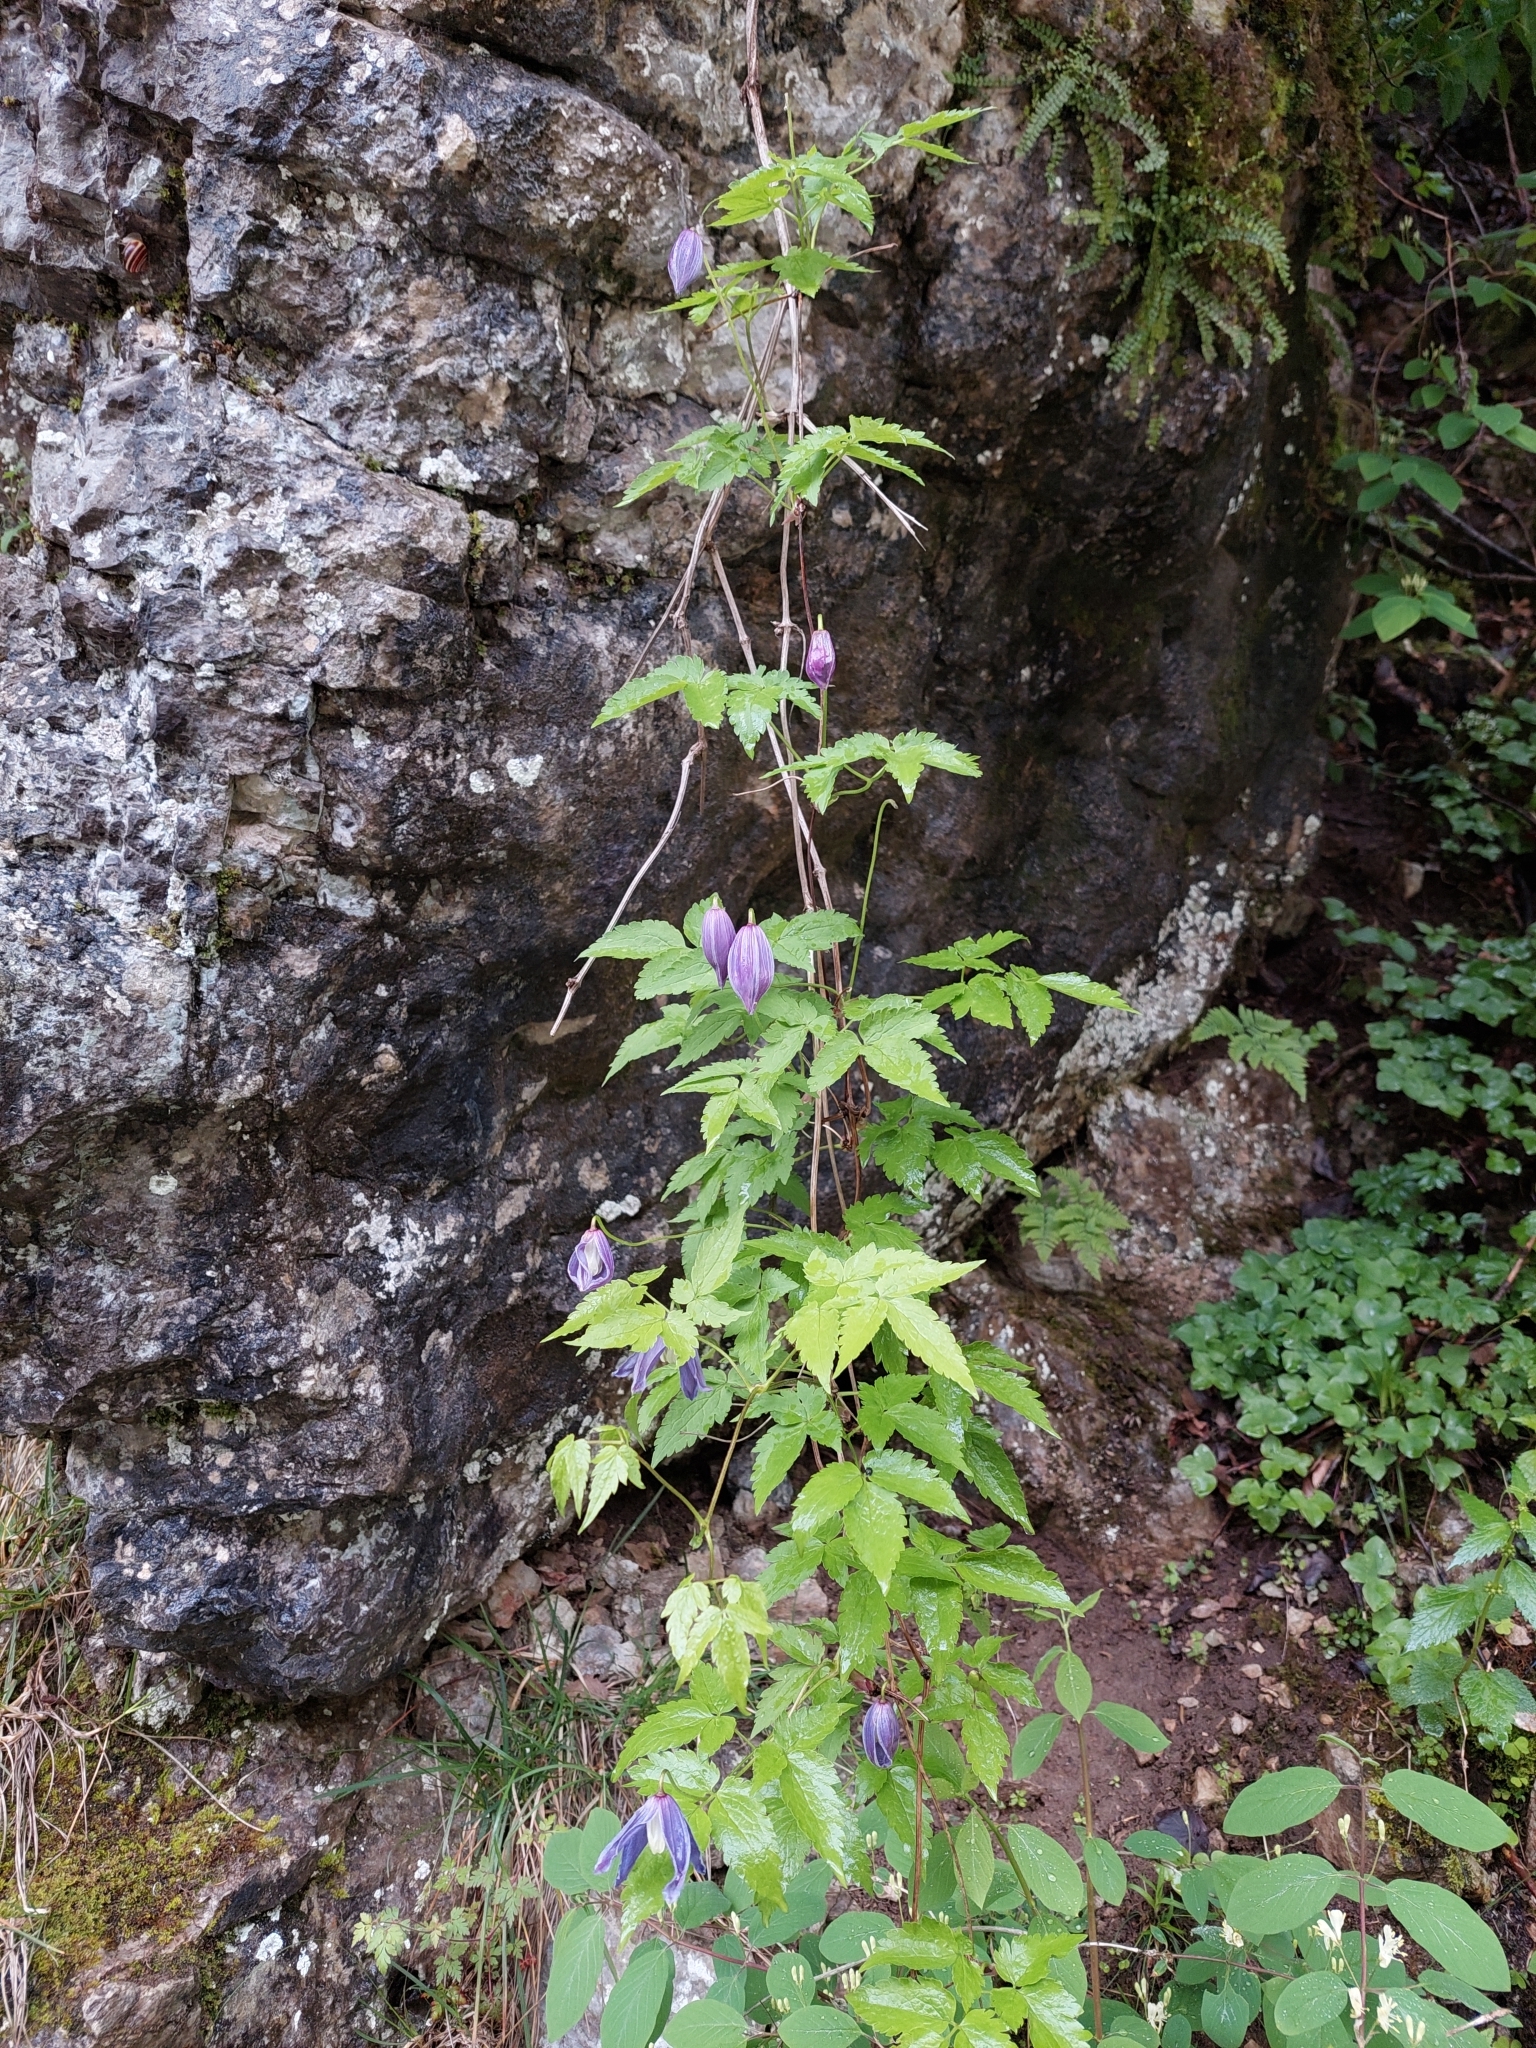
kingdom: Plantae
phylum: Tracheophyta
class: Magnoliopsida
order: Ranunculales
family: Ranunculaceae
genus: Clematis
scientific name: Clematis alpina
